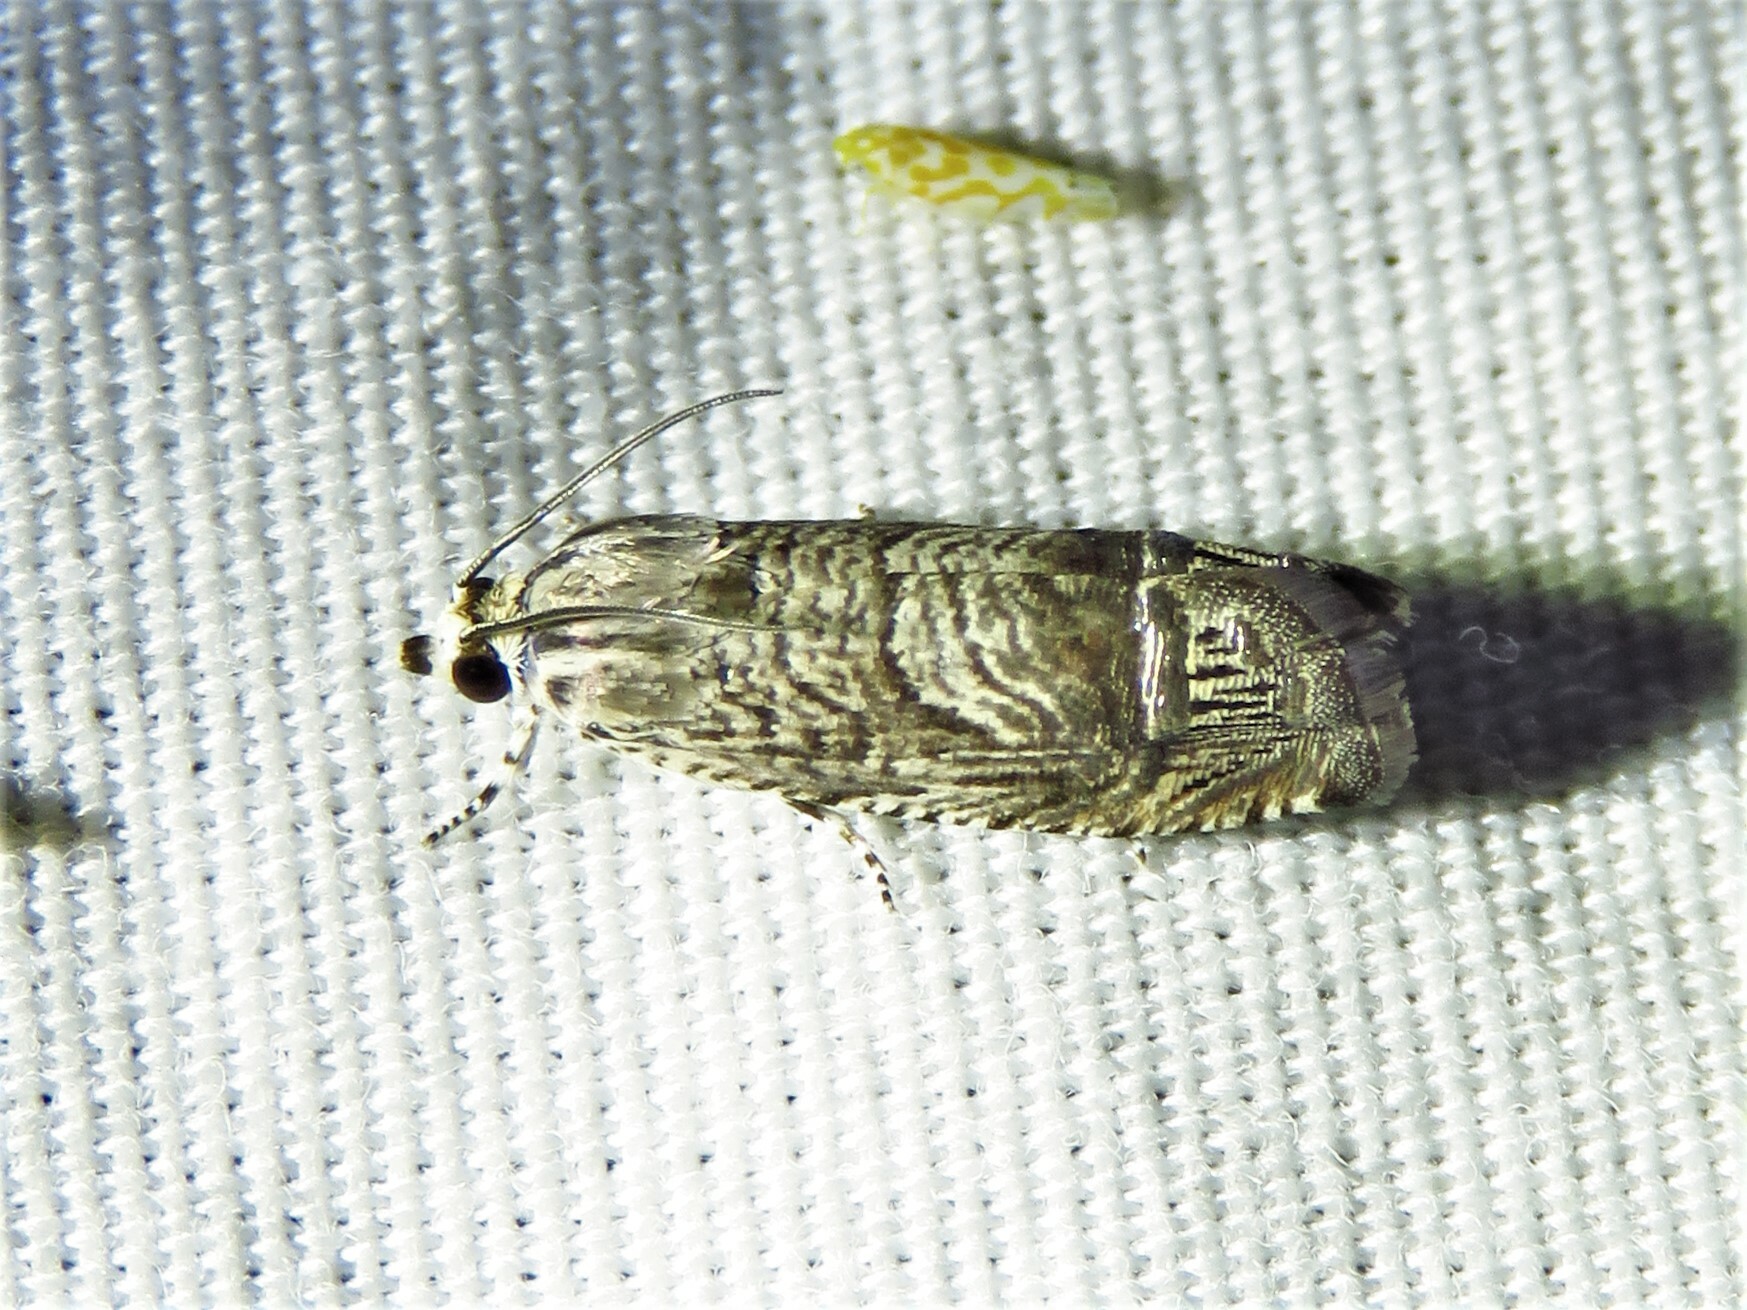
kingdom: Animalia
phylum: Arthropoda
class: Insecta
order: Lepidoptera
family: Tortricidae
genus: Ofatulena
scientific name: Ofatulena duodecemstriata
